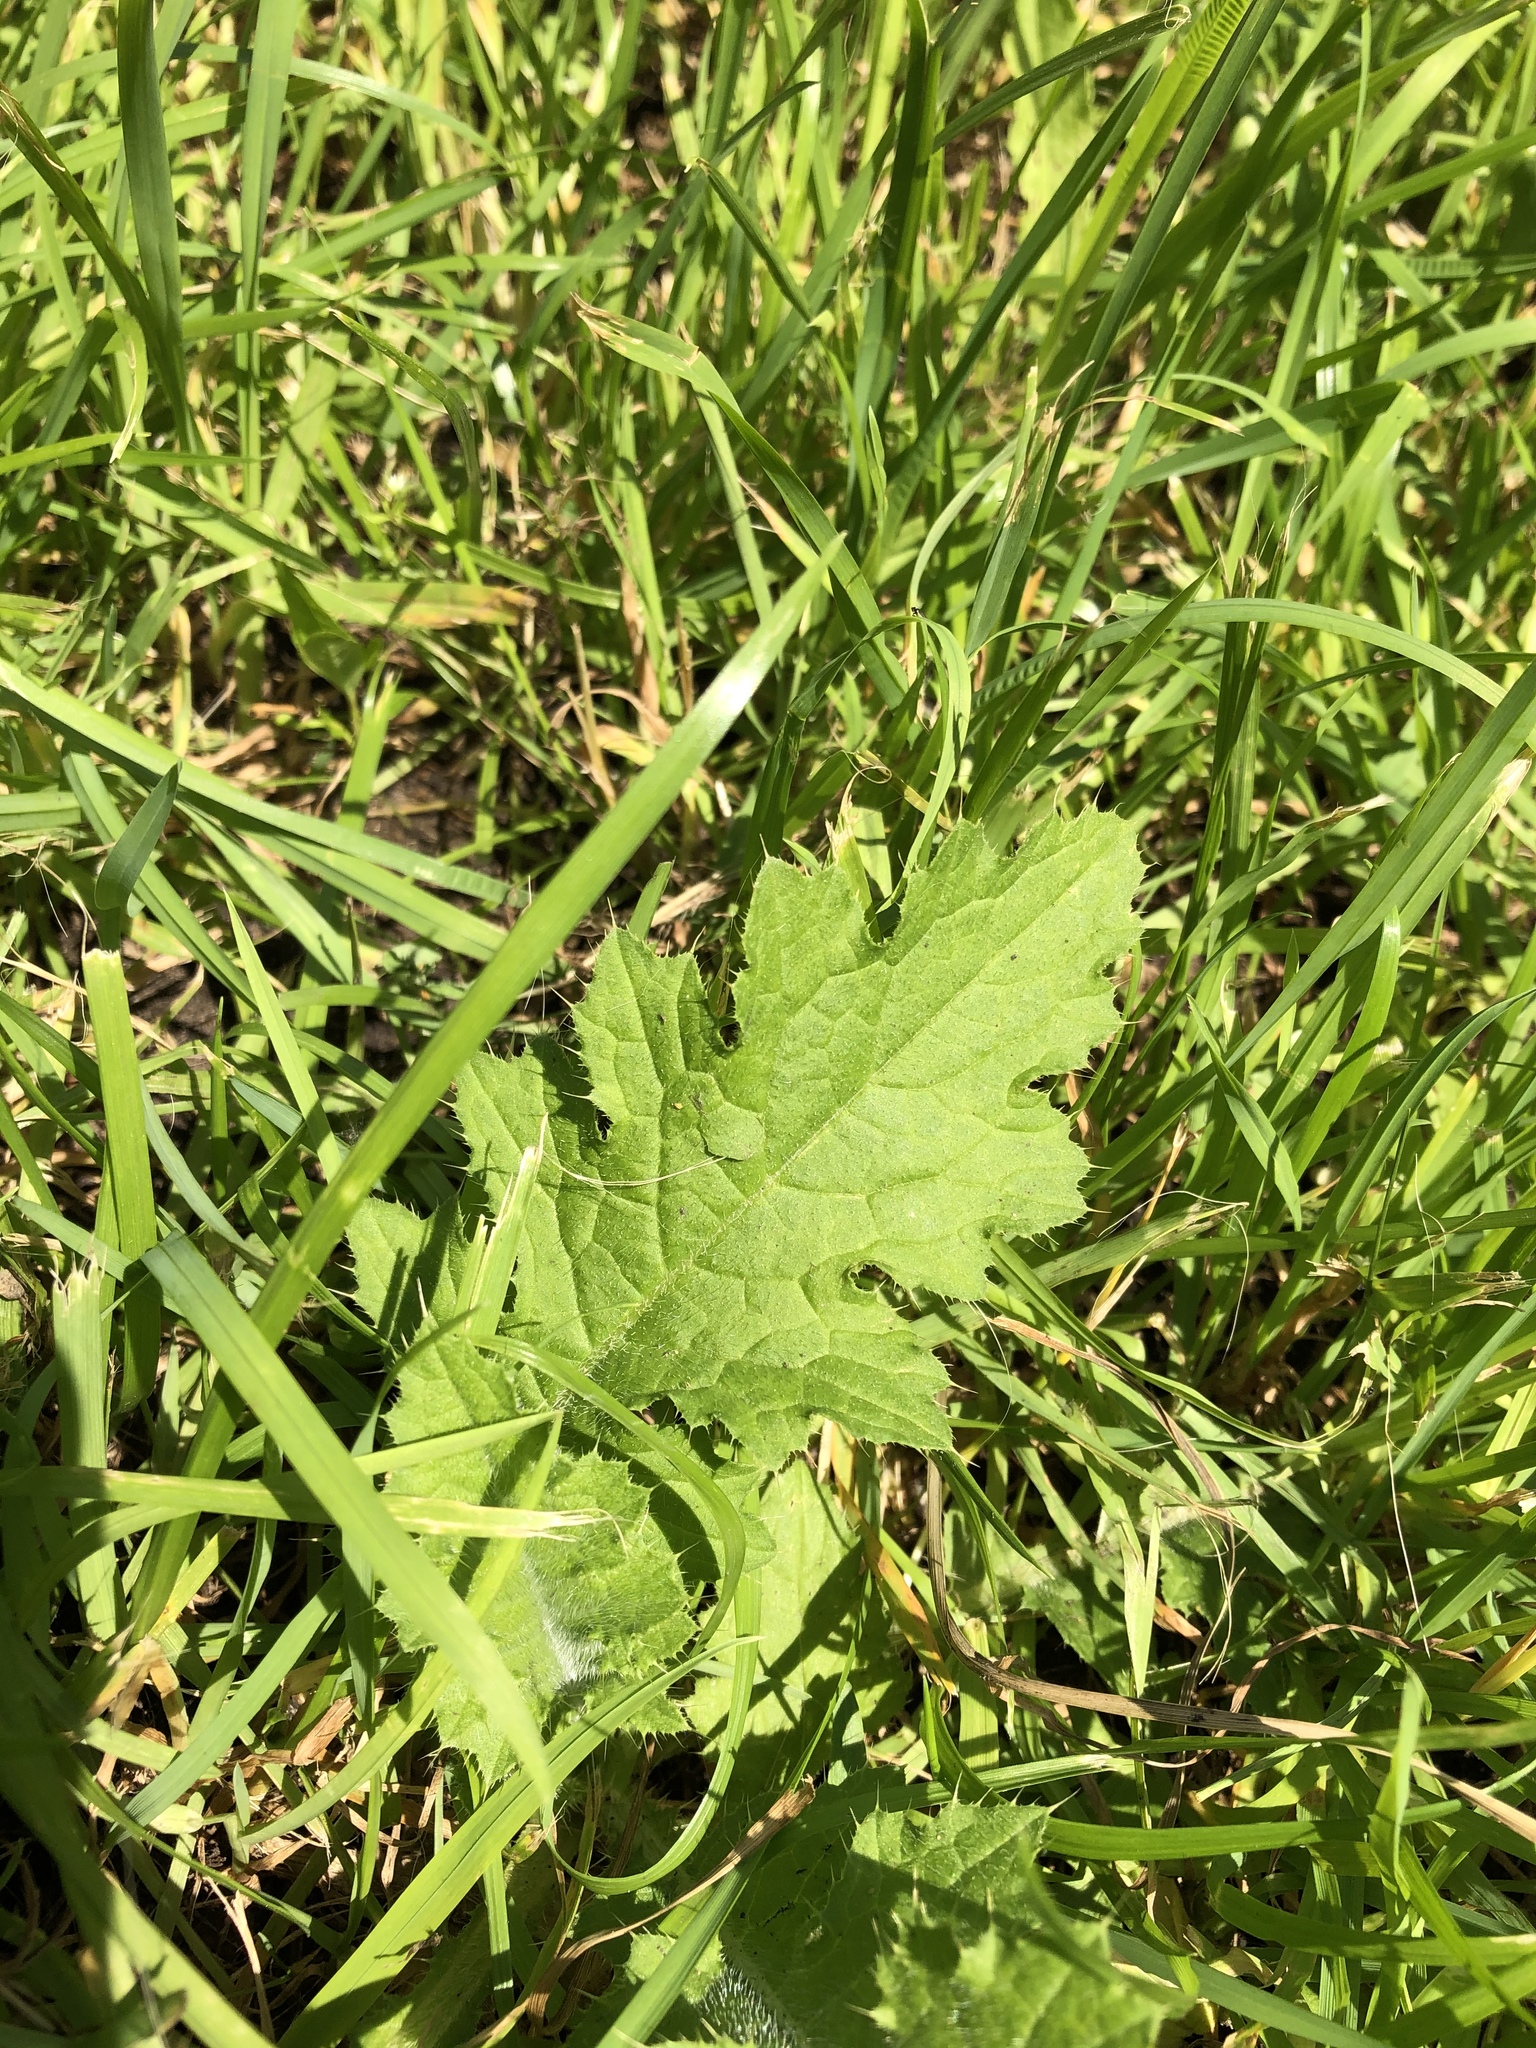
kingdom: Plantae
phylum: Tracheophyta
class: Magnoliopsida
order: Asterales
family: Asteraceae
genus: Carduus
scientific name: Carduus crispus
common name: Welted thistle
